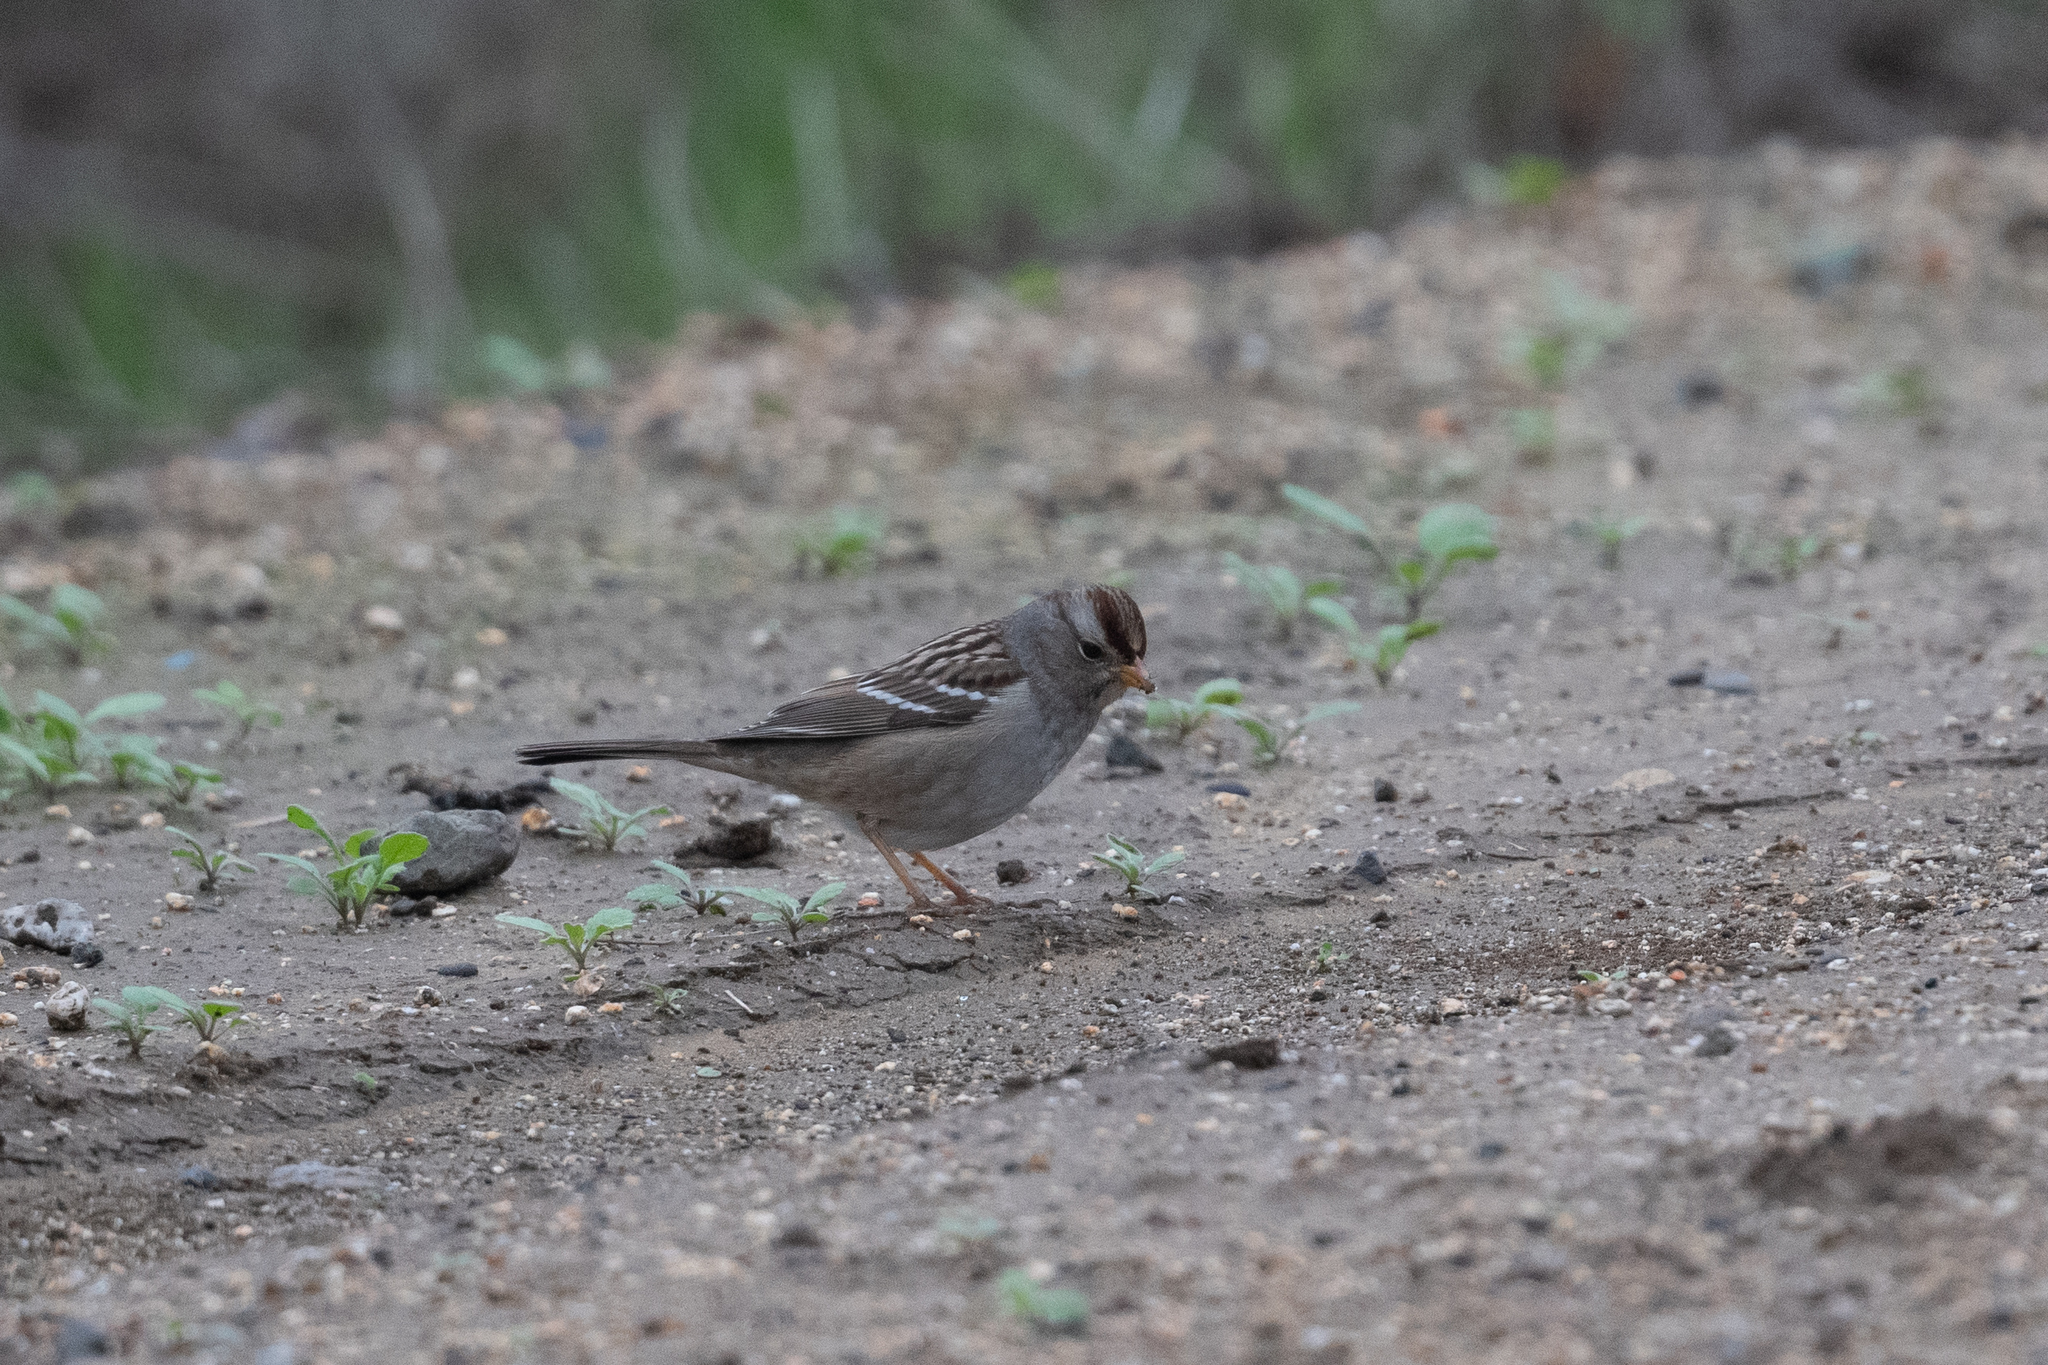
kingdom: Animalia
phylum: Chordata
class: Aves
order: Passeriformes
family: Passerellidae
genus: Zonotrichia
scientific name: Zonotrichia leucophrys
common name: White-crowned sparrow
